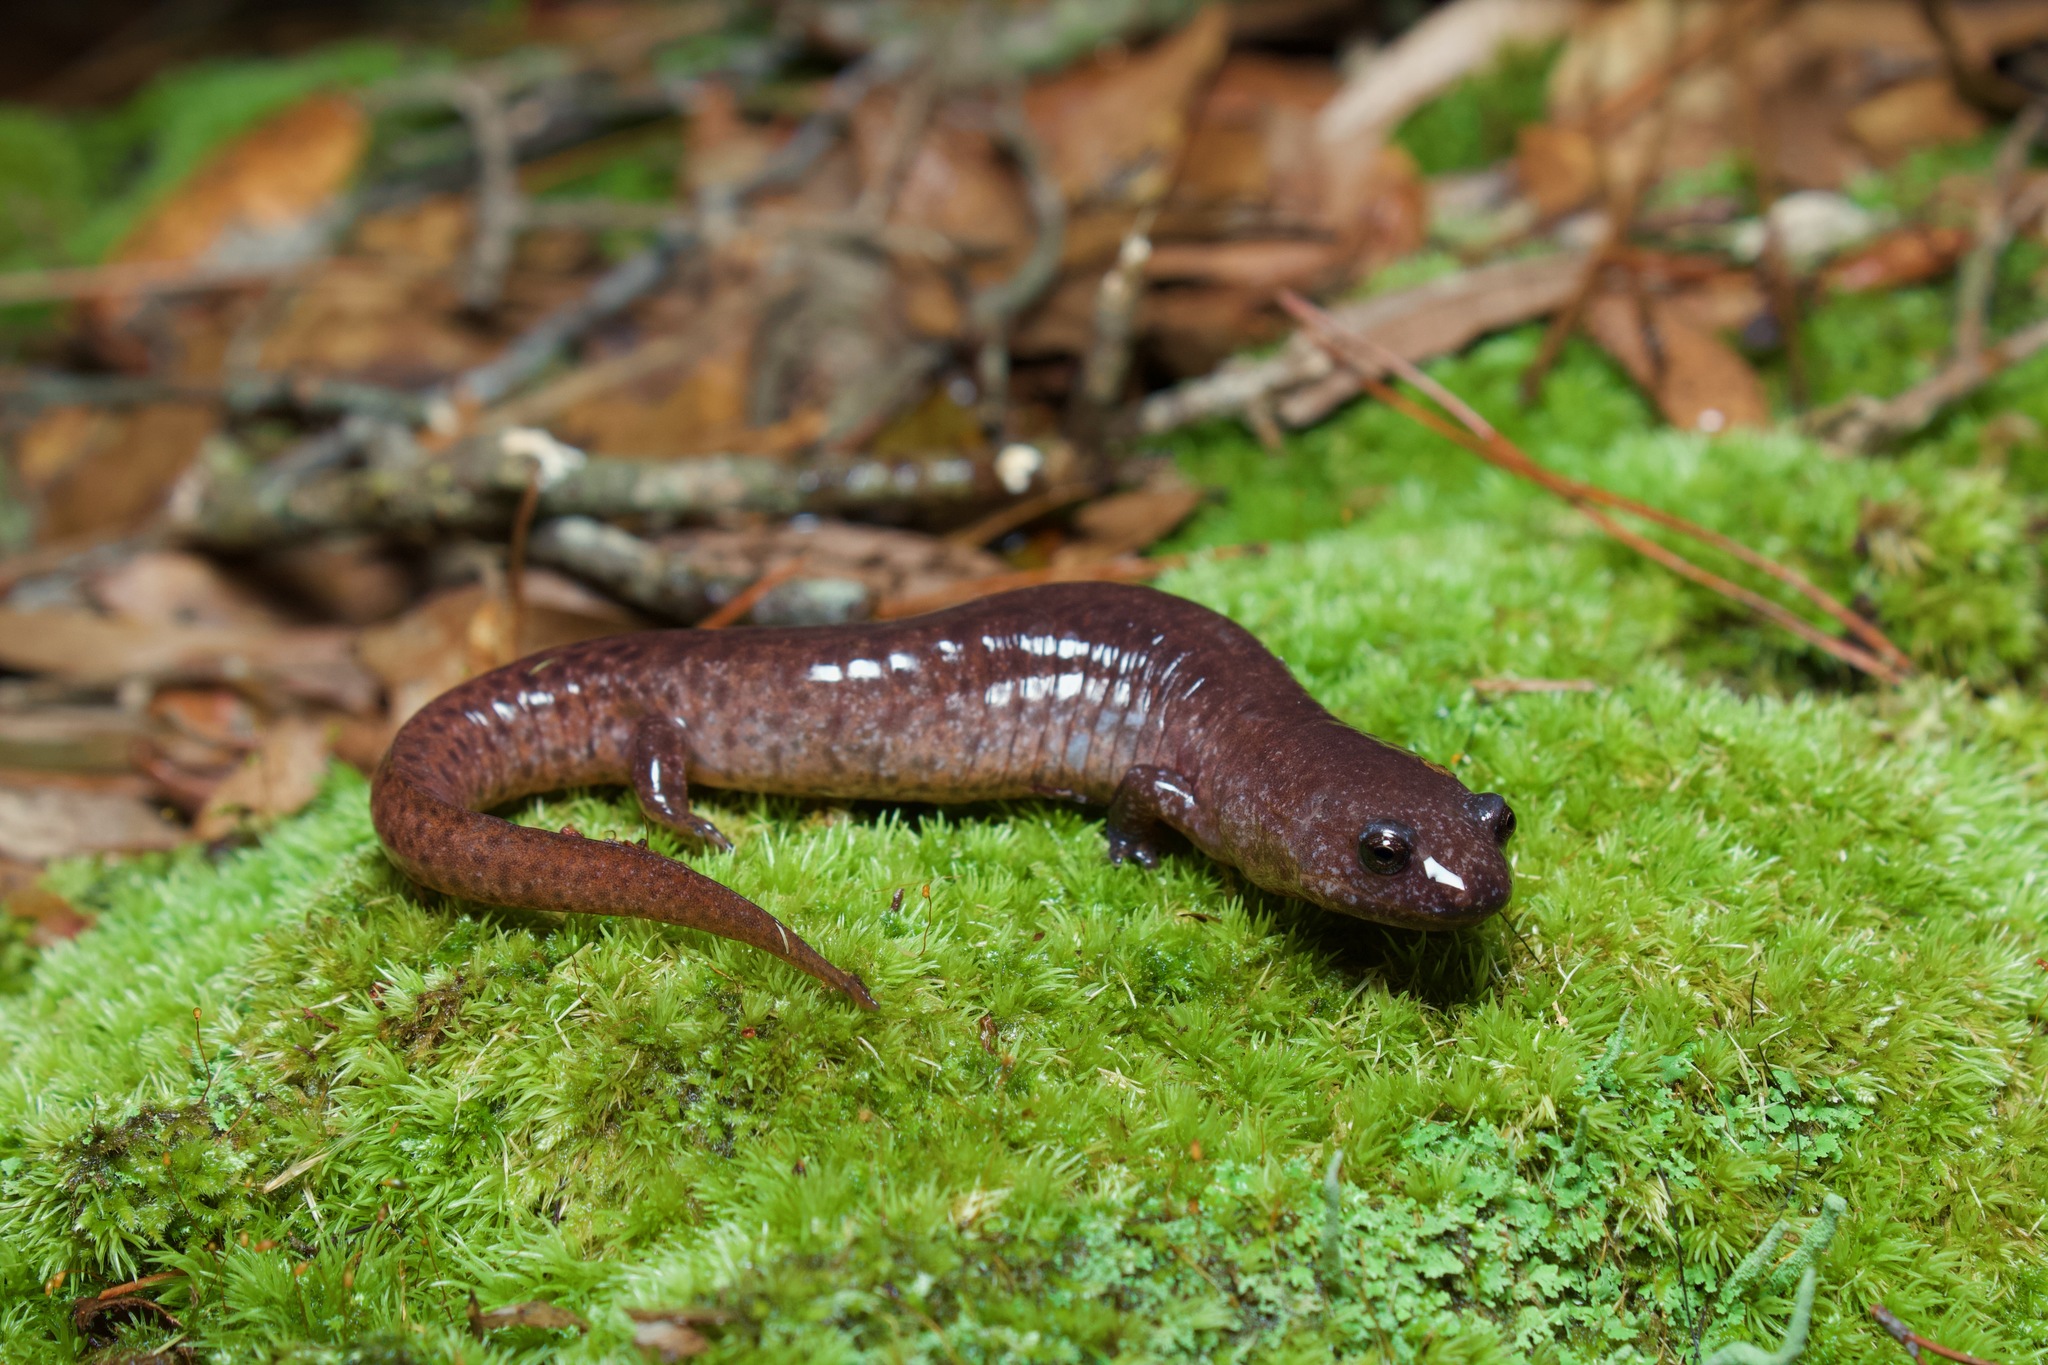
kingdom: Animalia
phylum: Chordata
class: Amphibia
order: Caudata
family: Plethodontidae
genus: Pseudotriton
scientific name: Pseudotriton ruber
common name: Red salamander
